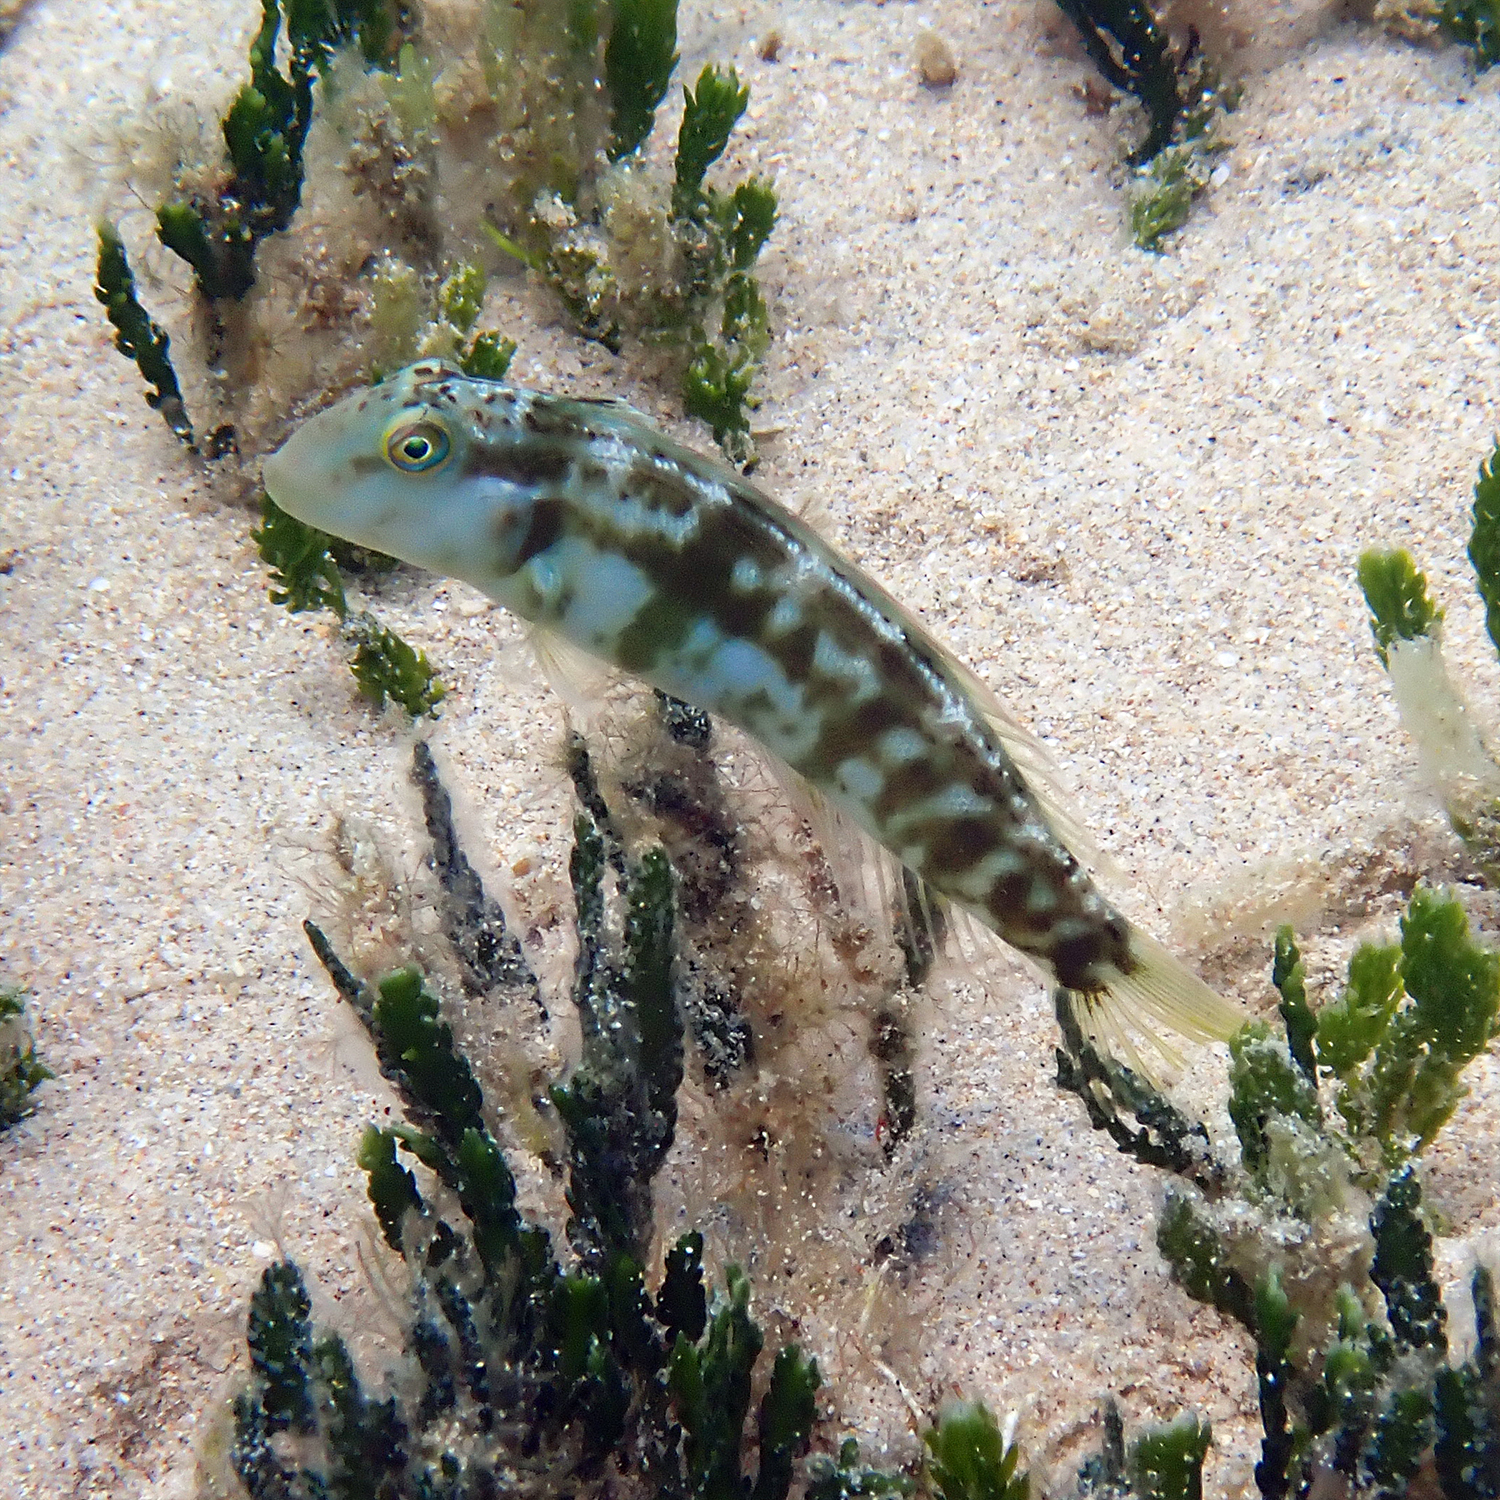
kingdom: Animalia
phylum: Chordata
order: Perciformes
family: Labridae
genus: Cymolutes
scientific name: Cymolutes praetextatus
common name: Knife razorfish
